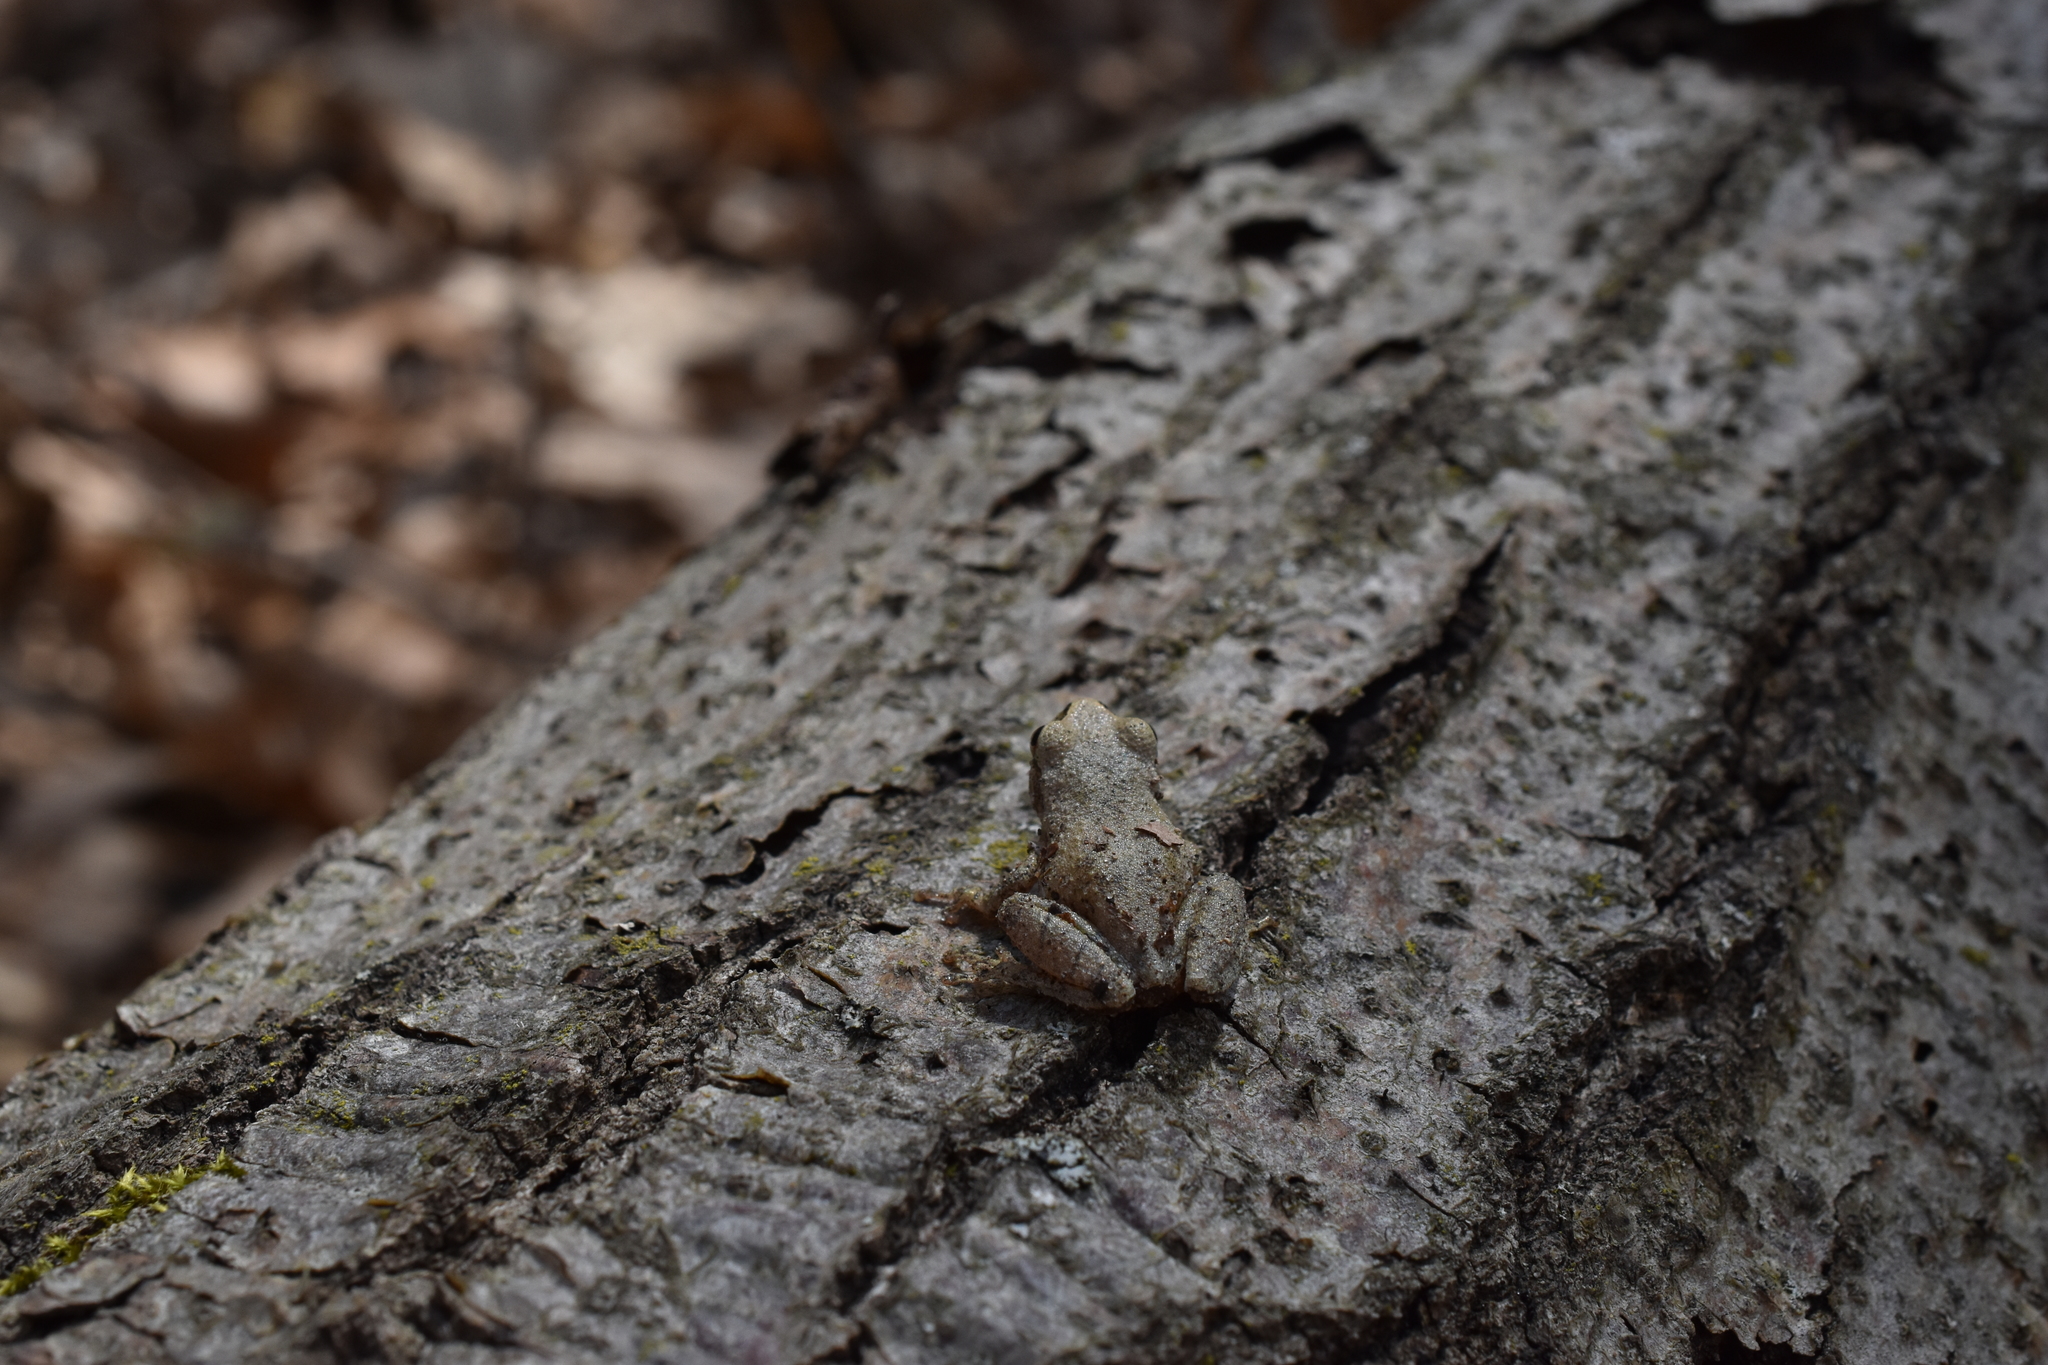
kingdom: Animalia
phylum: Chordata
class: Amphibia
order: Anura
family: Hylidae
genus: Pseudacris
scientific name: Pseudacris crucifer
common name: Spring peeper
